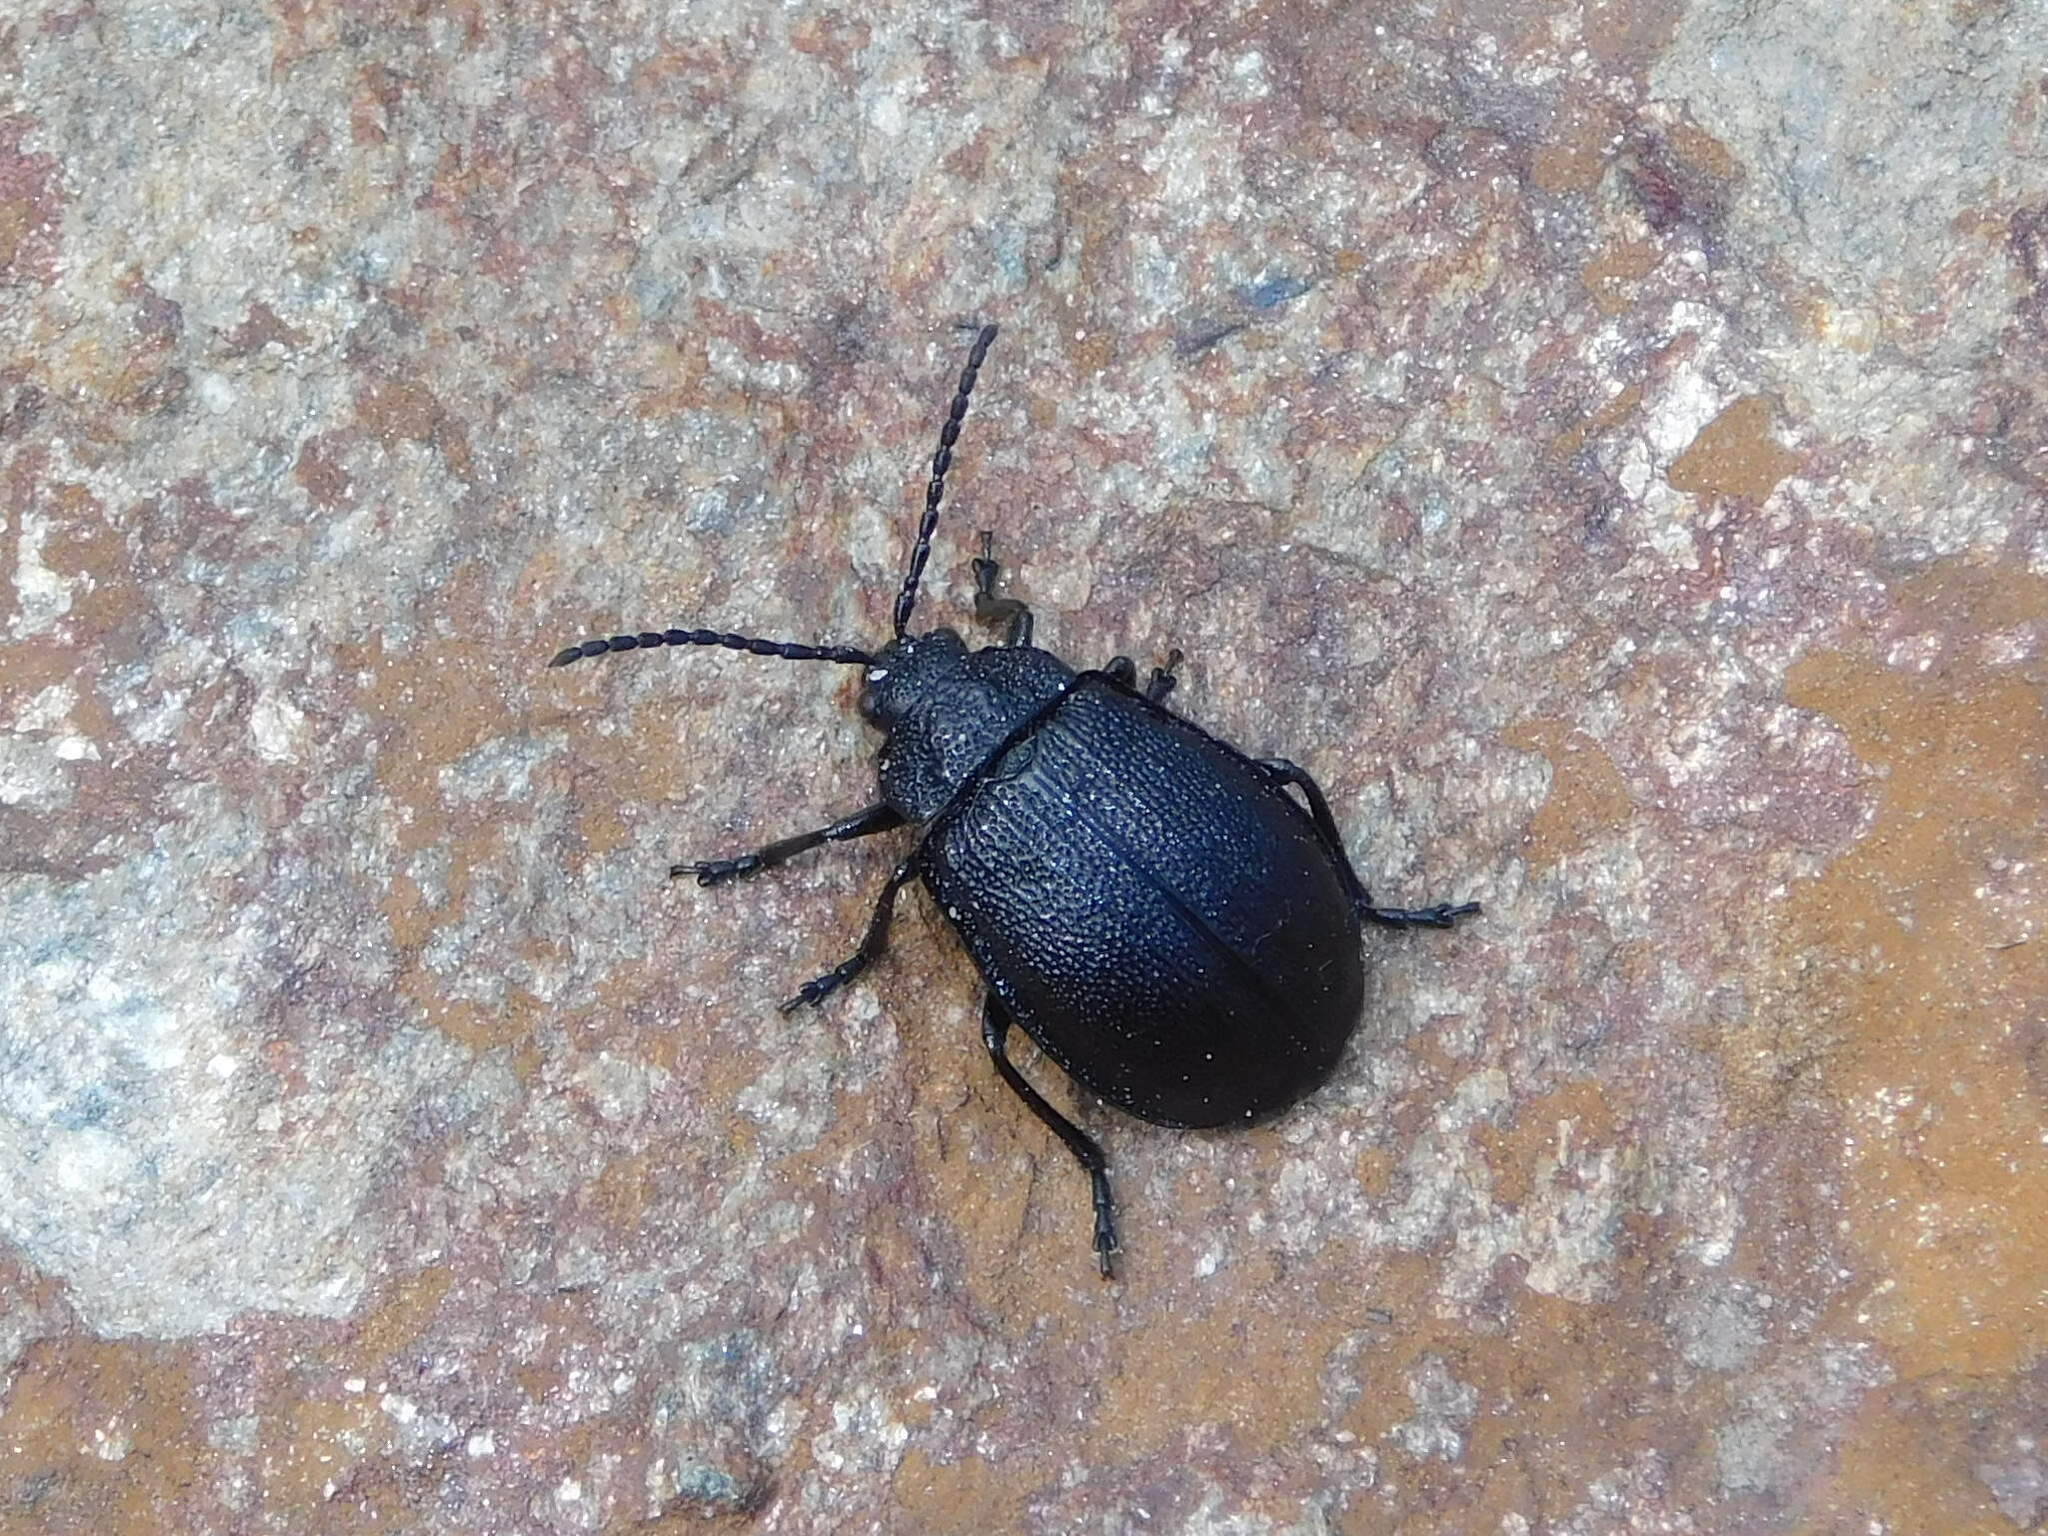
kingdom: Animalia
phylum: Arthropoda
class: Insecta
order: Coleoptera
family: Chrysomelidae
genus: Galeruca
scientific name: Galeruca tanaceti
